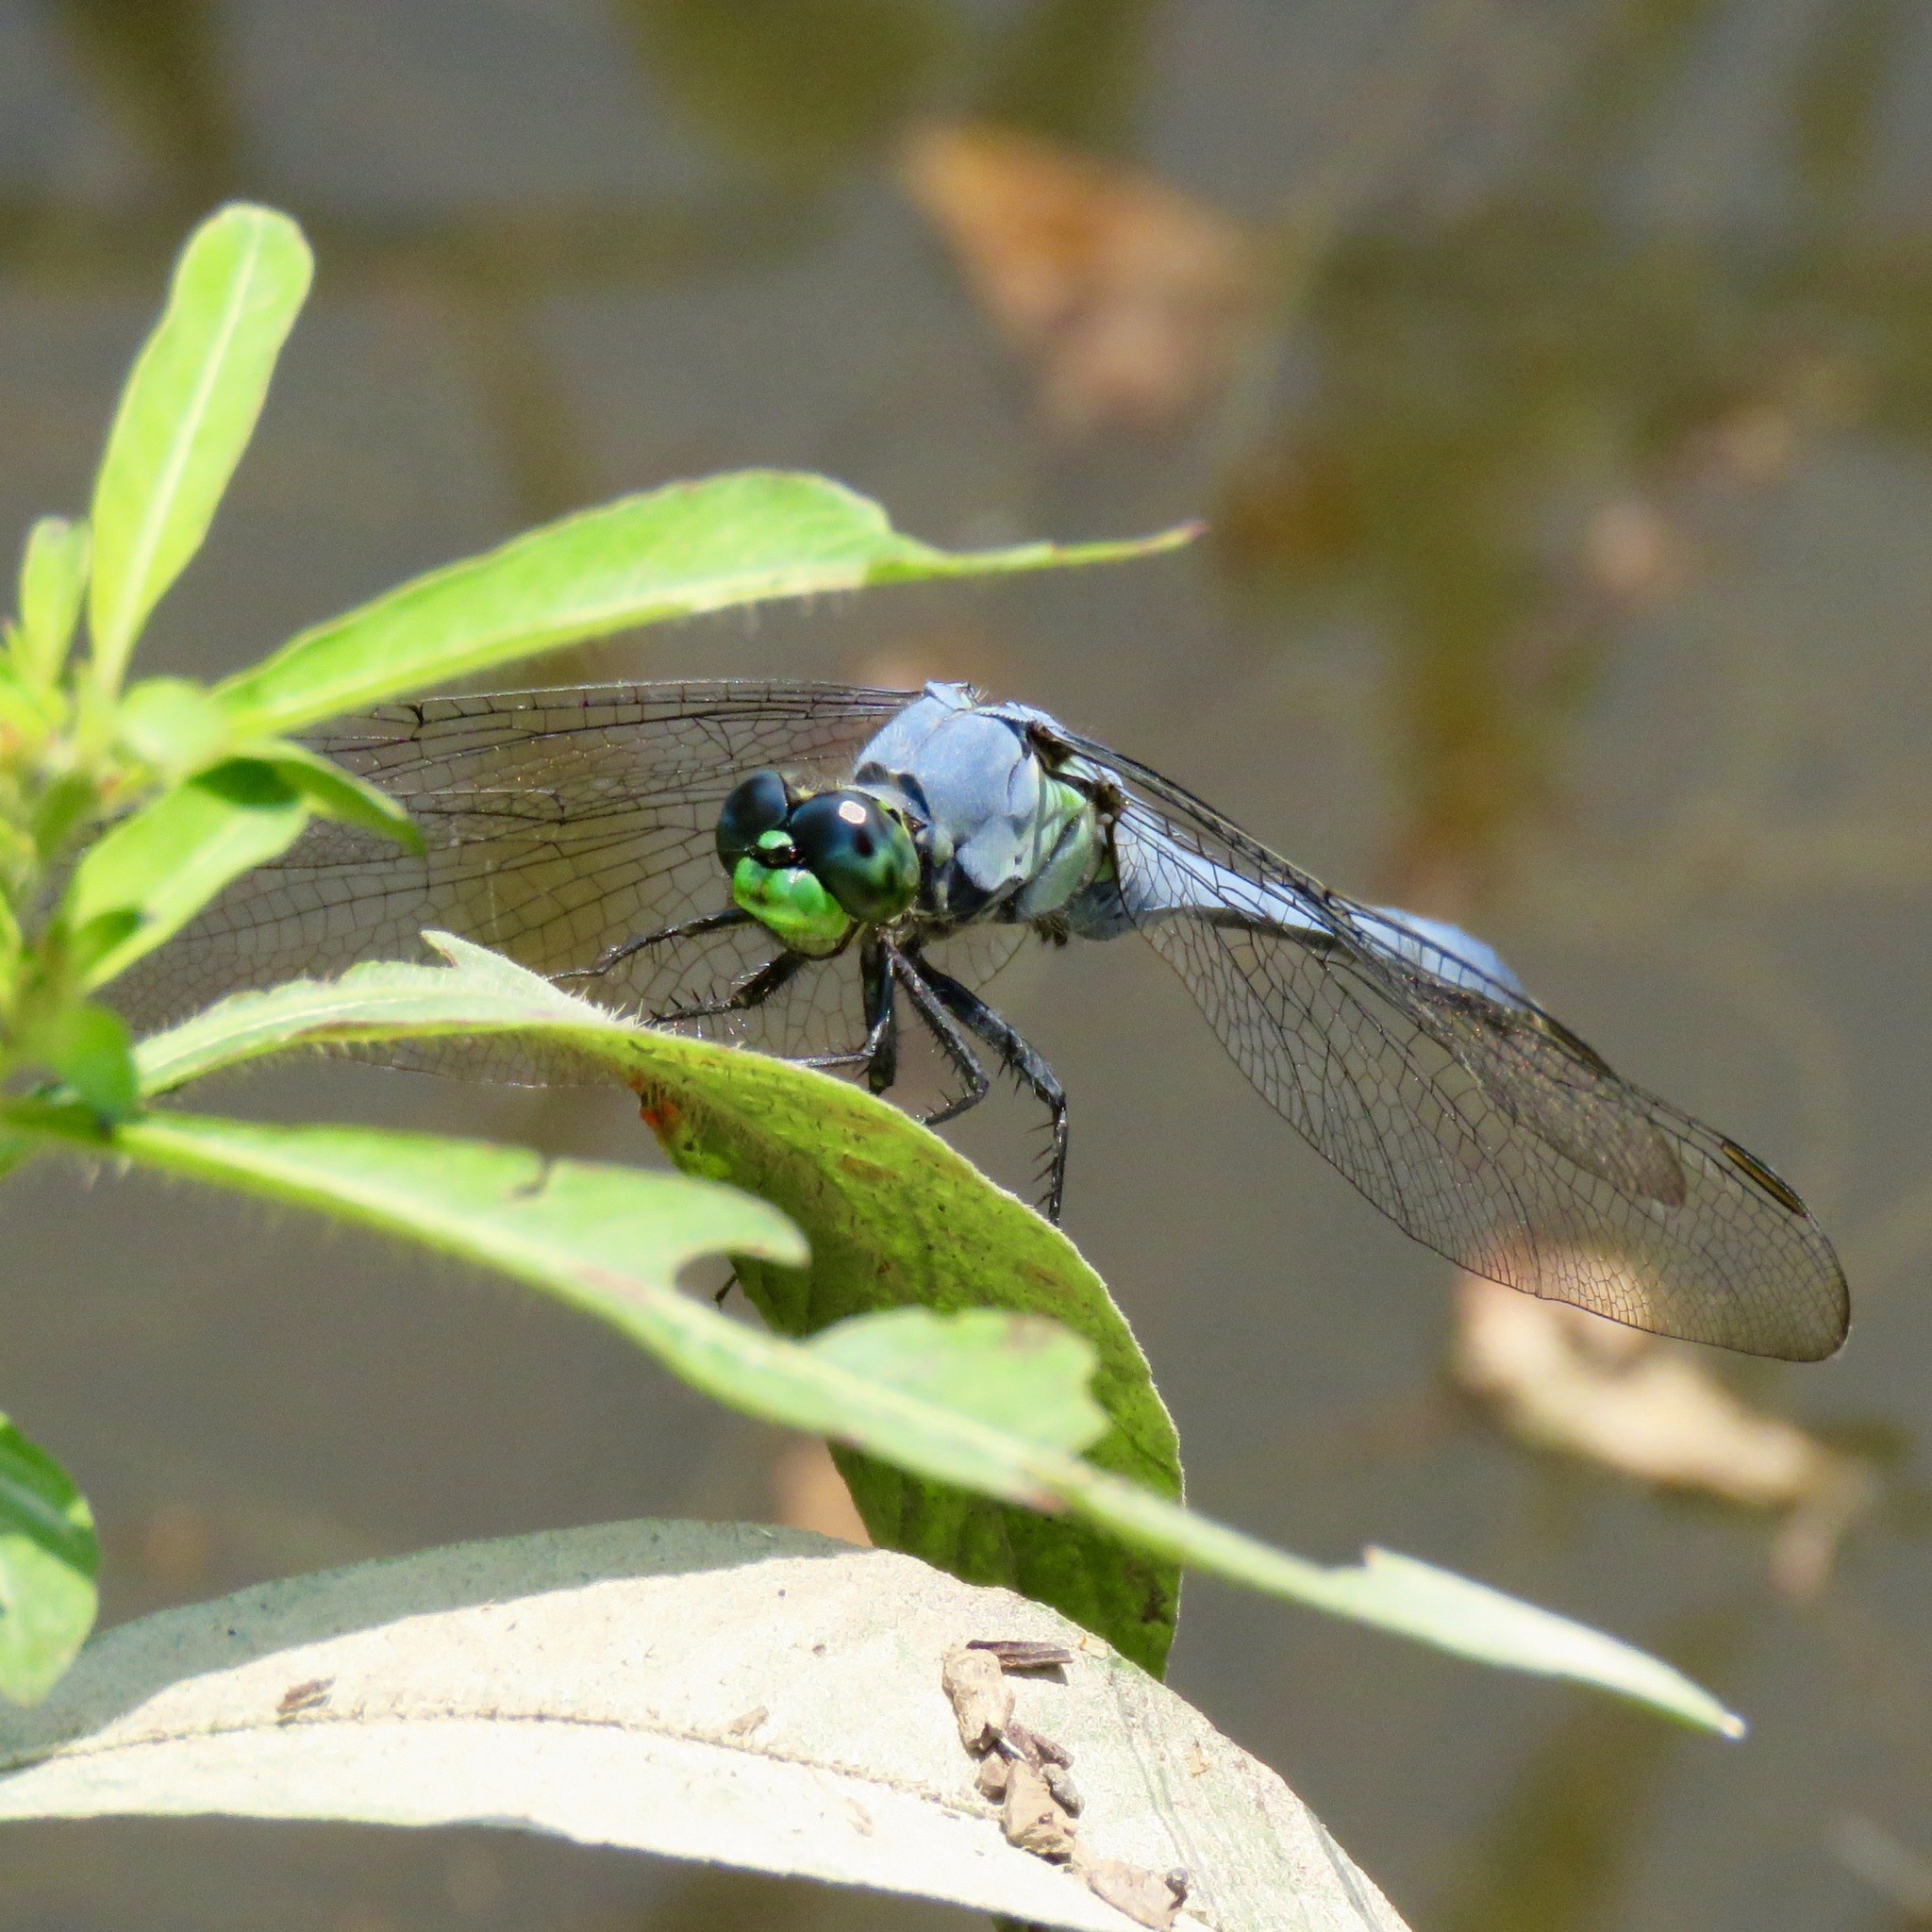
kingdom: Animalia
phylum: Arthropoda
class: Insecta
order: Odonata
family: Libellulidae
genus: Erythemis
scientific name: Erythemis simplicicollis
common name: Eastern pondhawk
